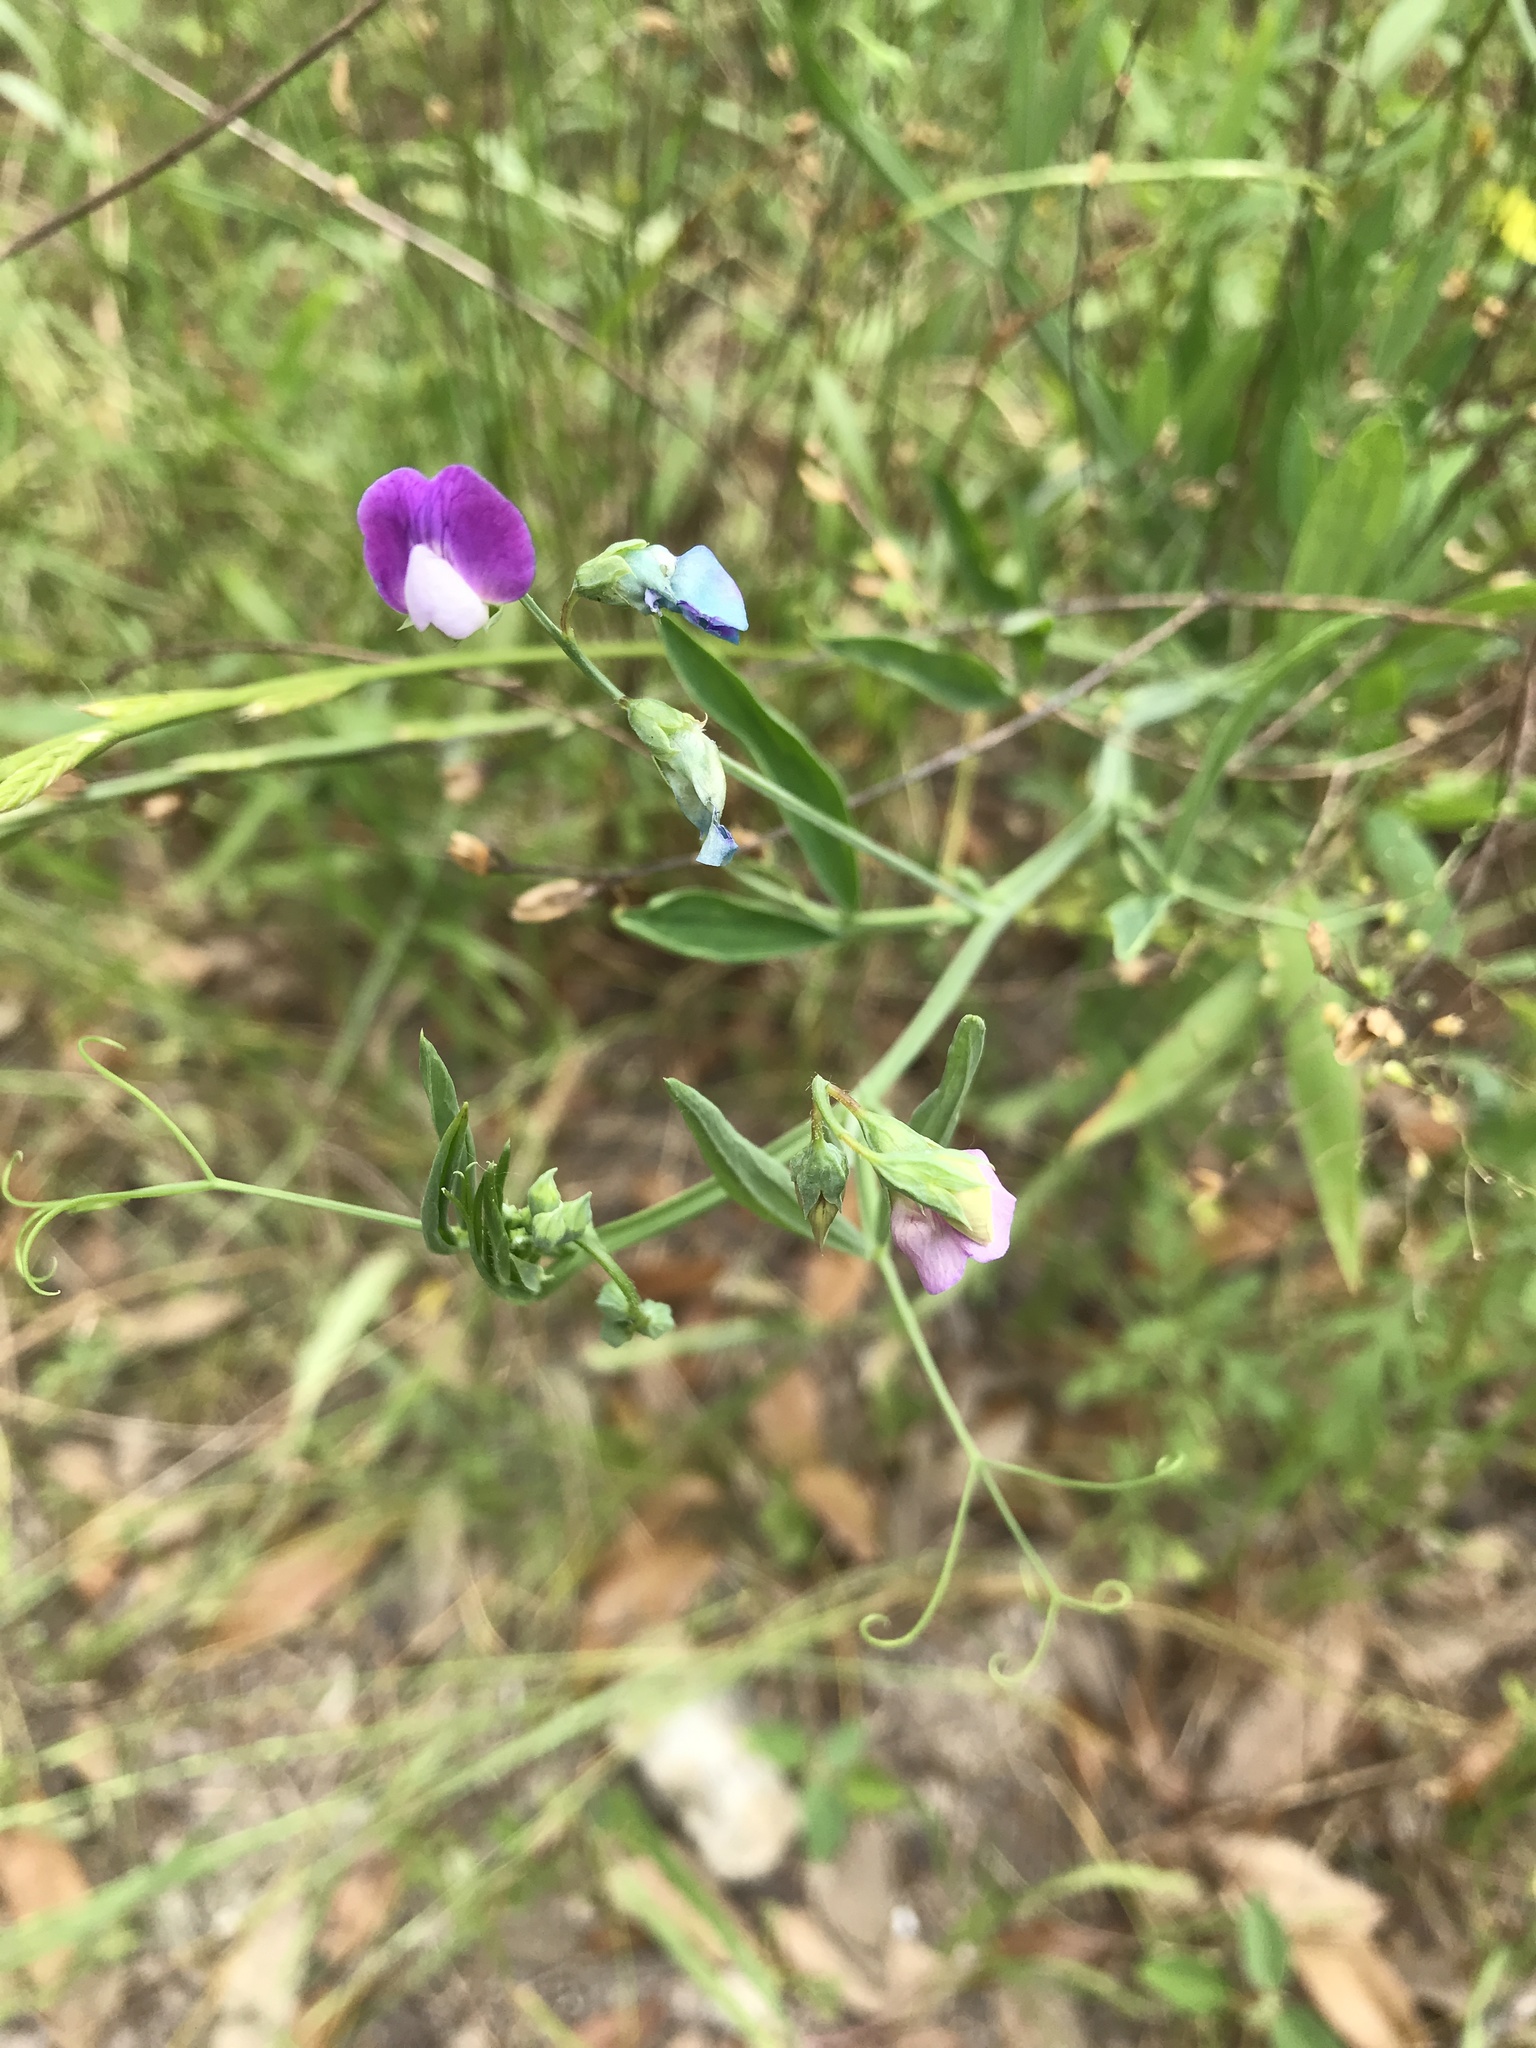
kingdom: Plantae
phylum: Tracheophyta
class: Magnoliopsida
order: Fabales
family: Fabaceae
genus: Lathyrus
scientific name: Lathyrus hirsutus
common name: Hairy vetchling
